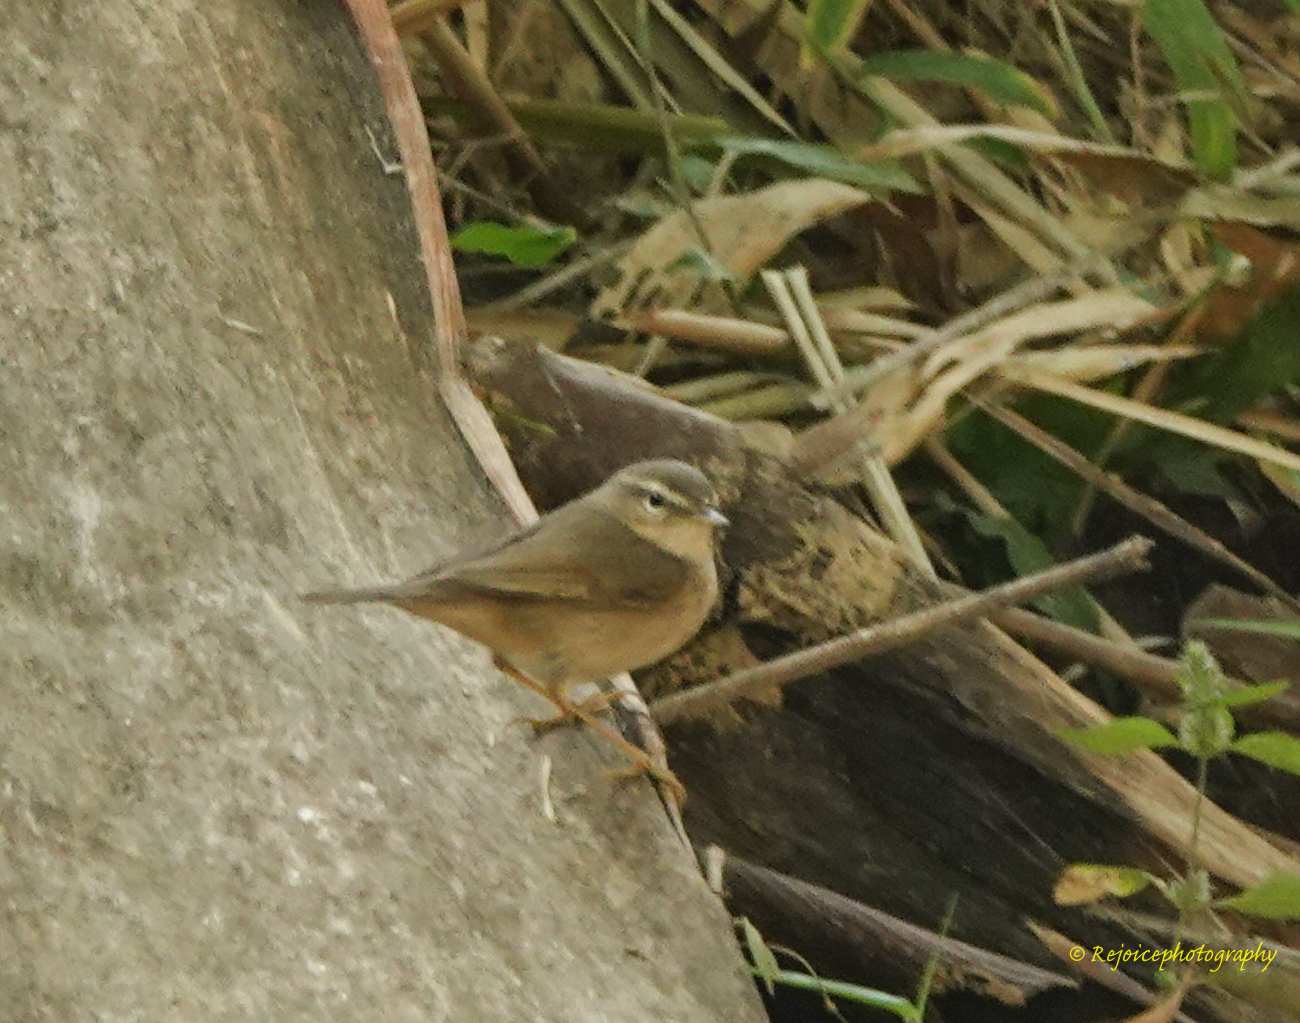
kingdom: Animalia
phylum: Chordata
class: Aves
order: Passeriformes
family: Phylloscopidae
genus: Phylloscopus
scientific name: Phylloscopus fuscatus
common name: Dusky warbler
